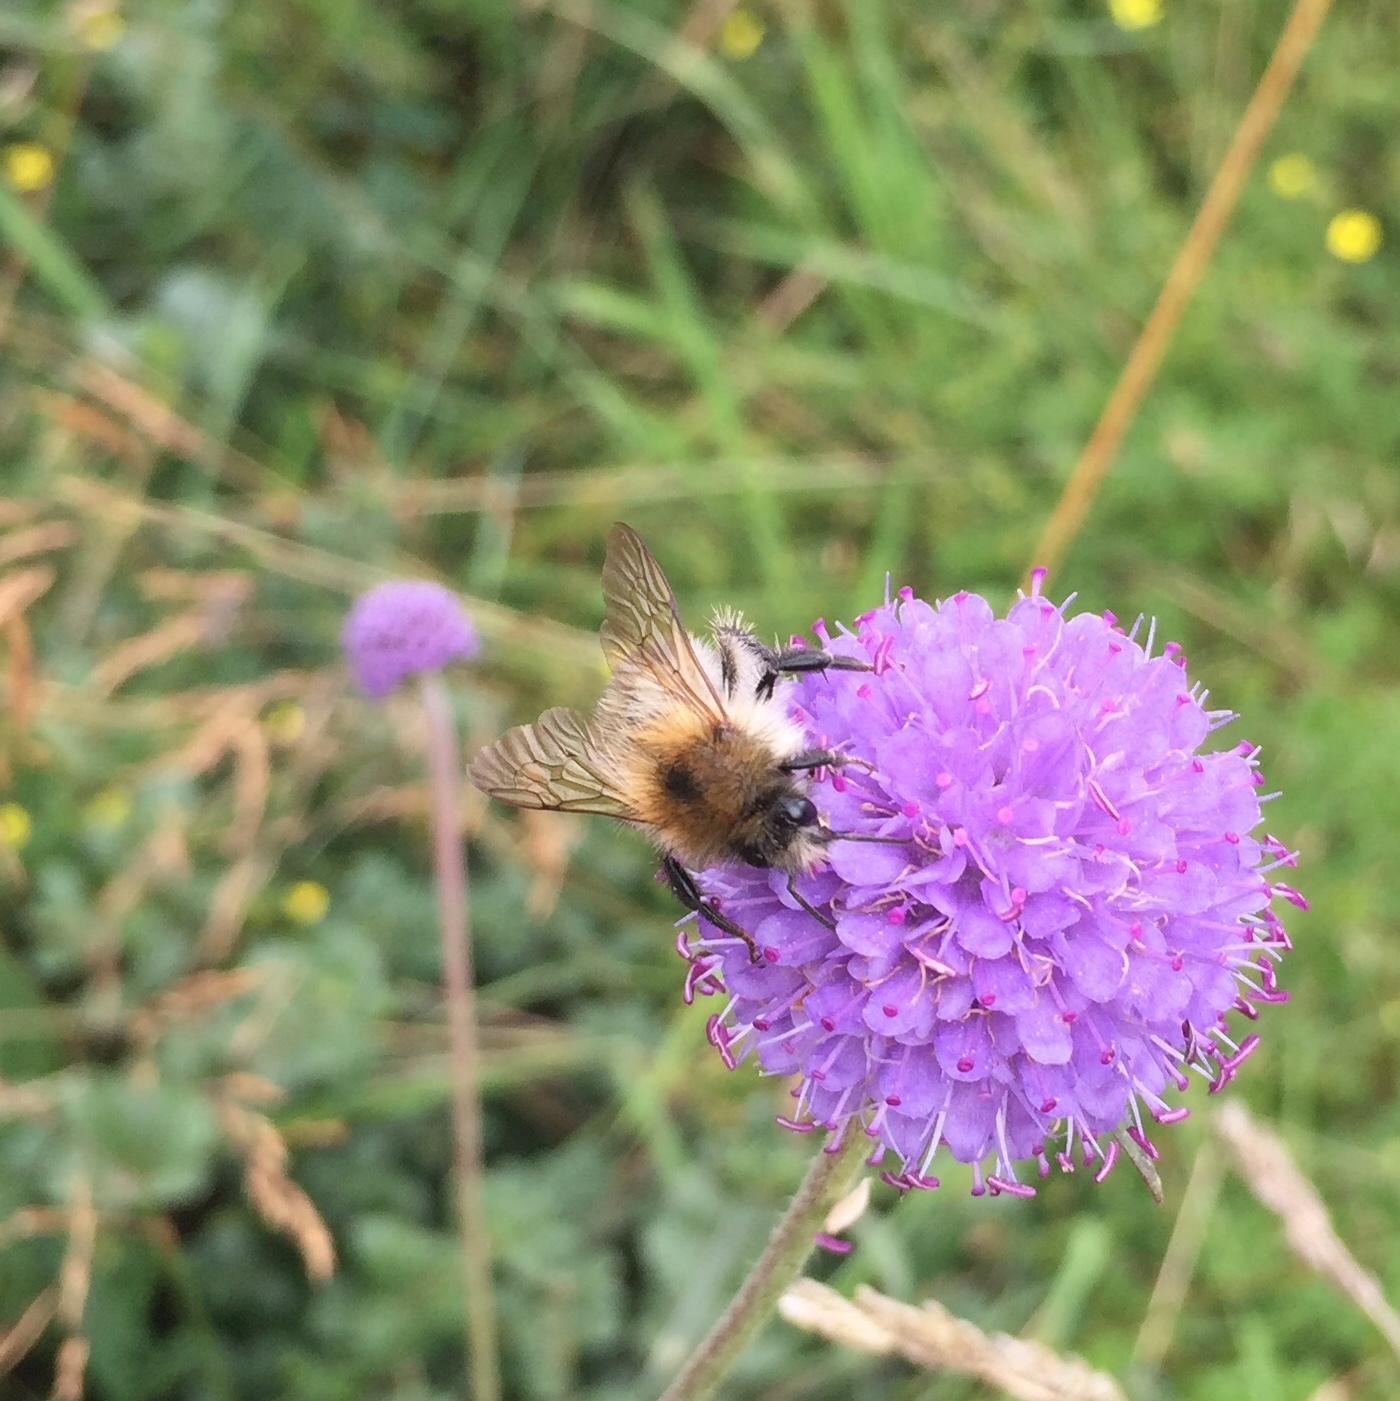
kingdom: Animalia
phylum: Arthropoda
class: Insecta
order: Hymenoptera
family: Apidae
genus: Bombus
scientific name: Bombus pascuorum
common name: Common carder bee
